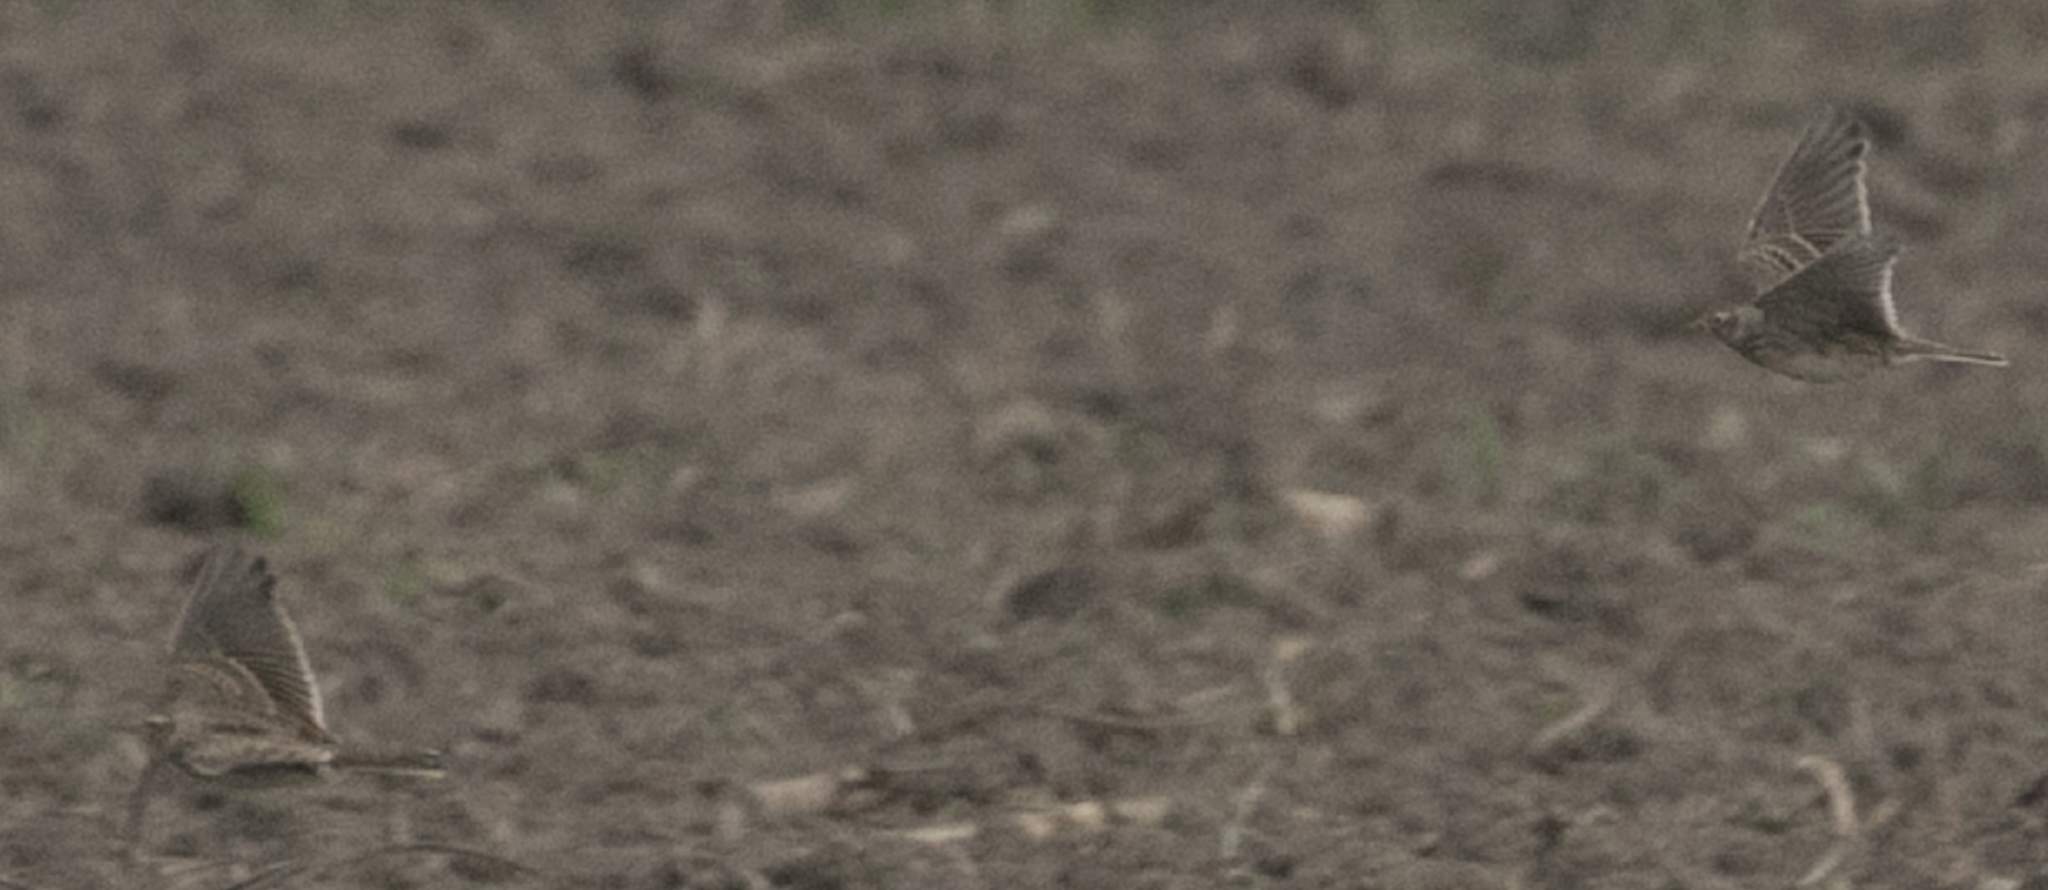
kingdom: Animalia
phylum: Chordata
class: Aves
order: Passeriformes
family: Alaudidae
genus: Alauda
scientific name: Alauda arvensis
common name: Eurasian skylark
